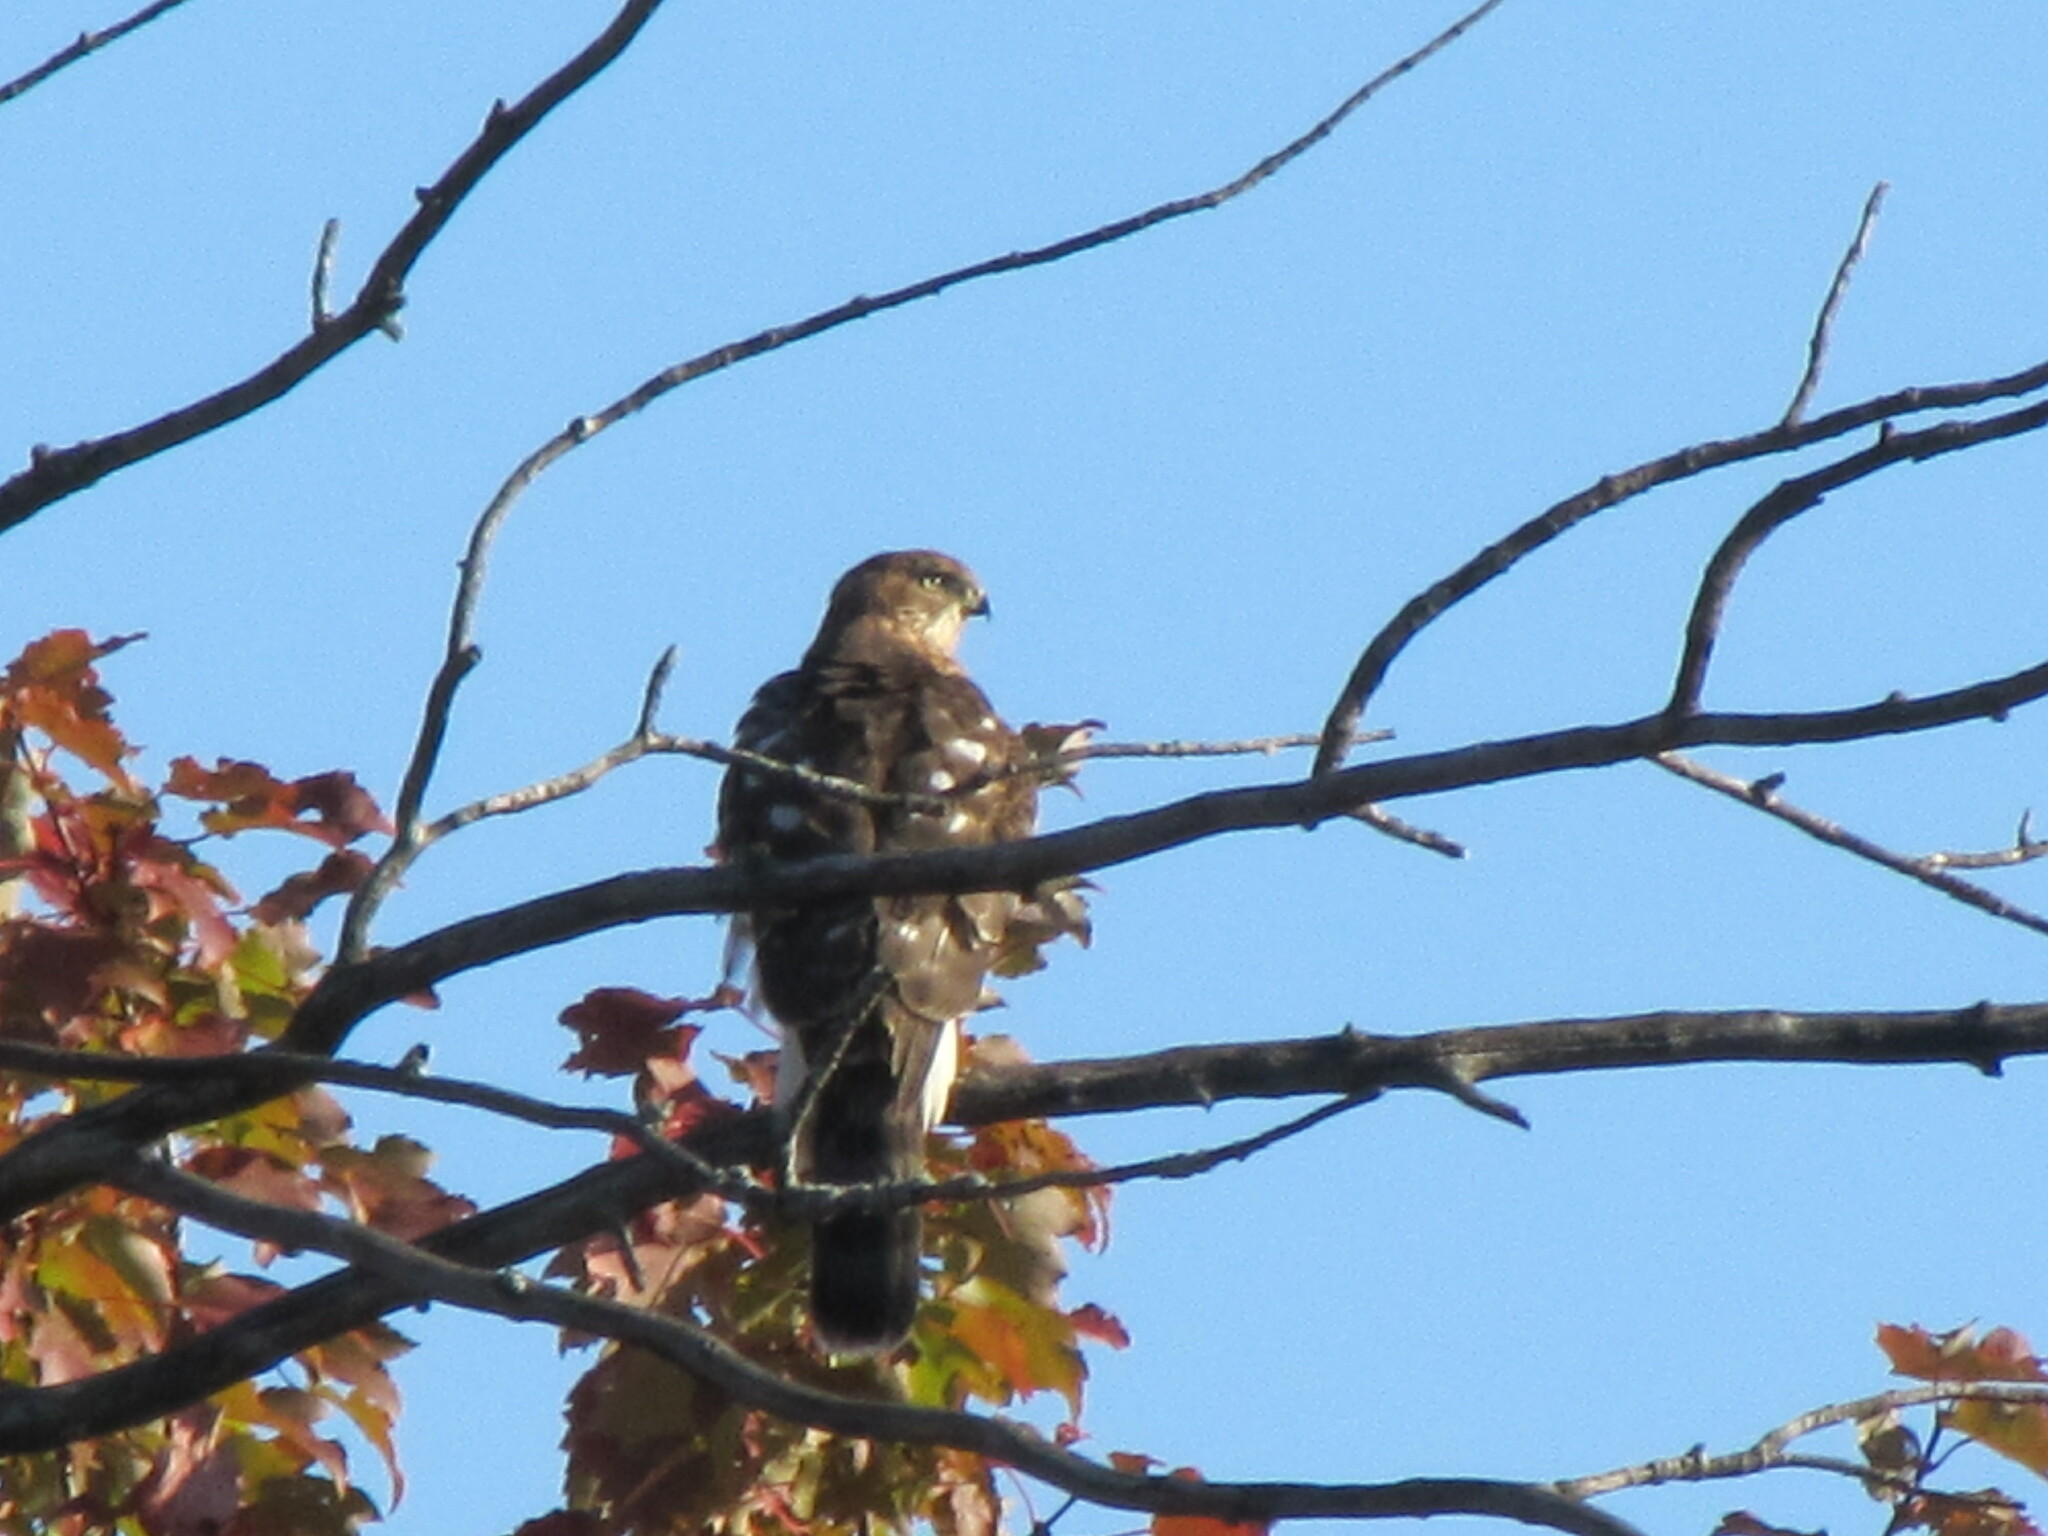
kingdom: Animalia
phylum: Chordata
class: Aves
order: Accipitriformes
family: Accipitridae
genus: Accipiter
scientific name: Accipiter cooperii
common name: Cooper's hawk
